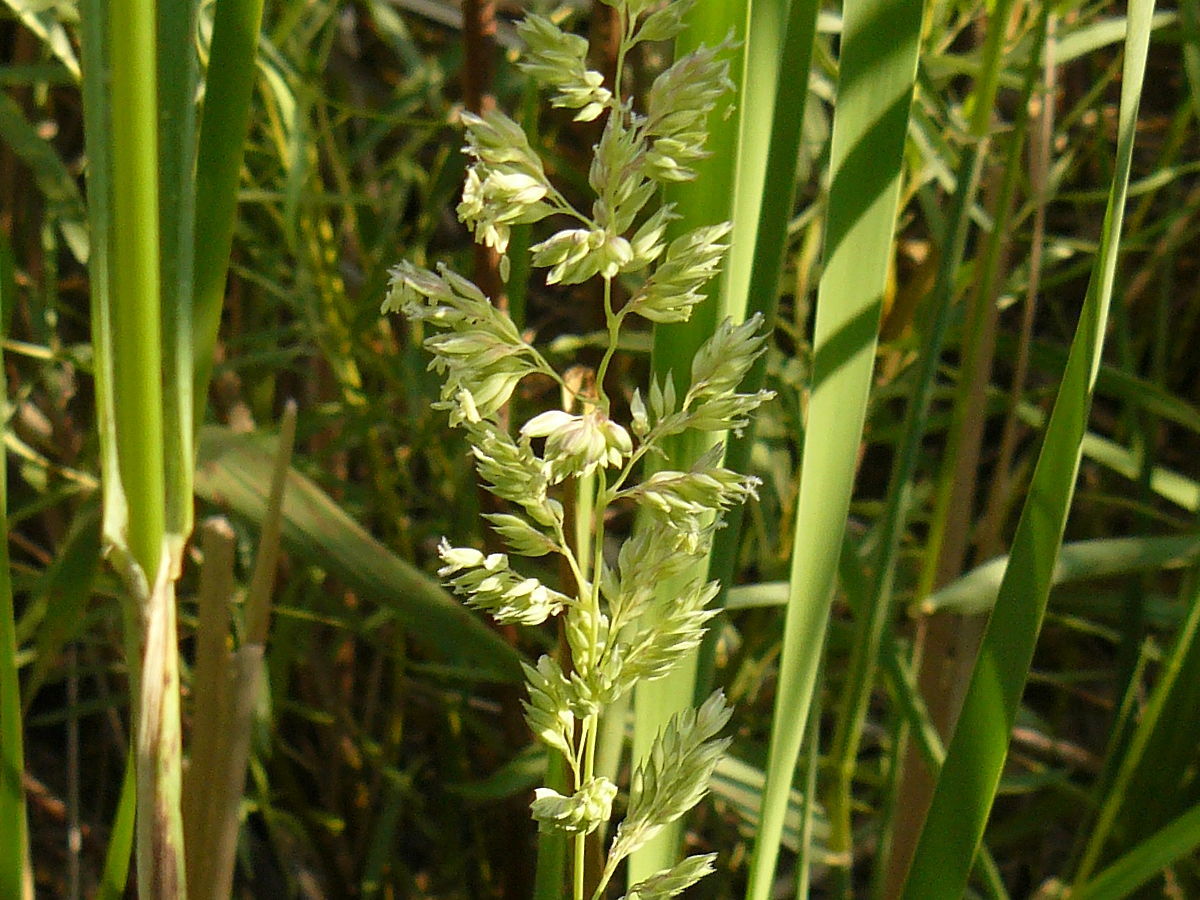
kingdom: Plantae
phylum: Tracheophyta
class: Liliopsida
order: Poales
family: Poaceae
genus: Phalaris
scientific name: Phalaris arundinacea
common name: Reed canary-grass
